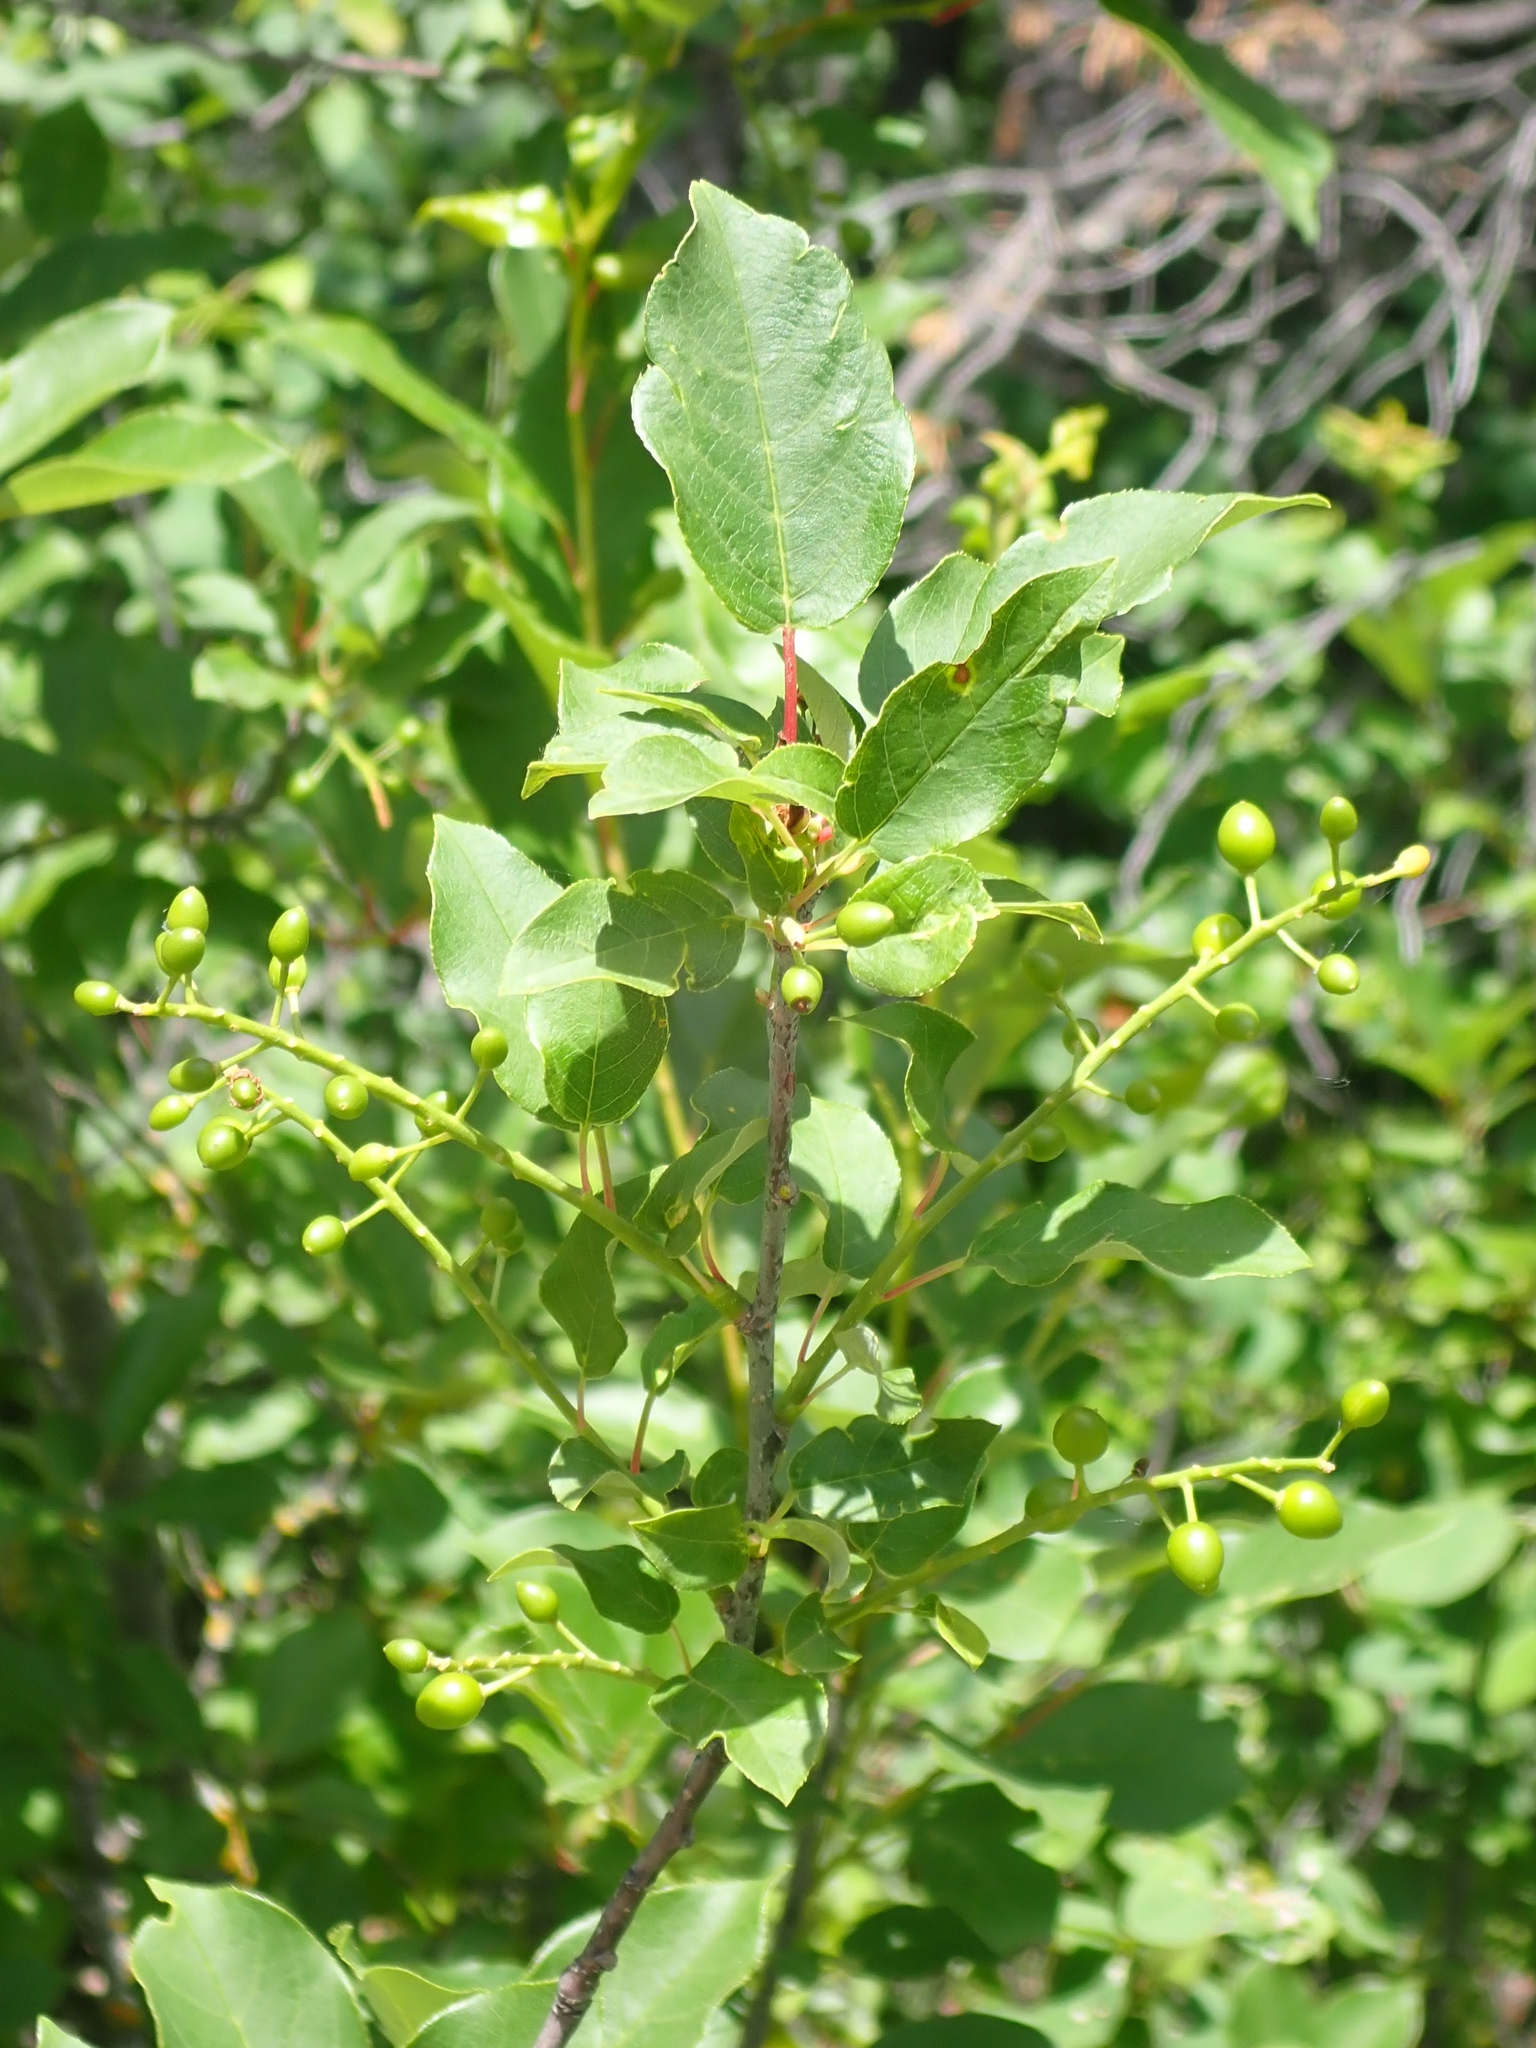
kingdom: Plantae
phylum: Tracheophyta
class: Magnoliopsida
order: Rosales
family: Rosaceae
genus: Prunus
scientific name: Prunus virginiana
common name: Chokecherry
